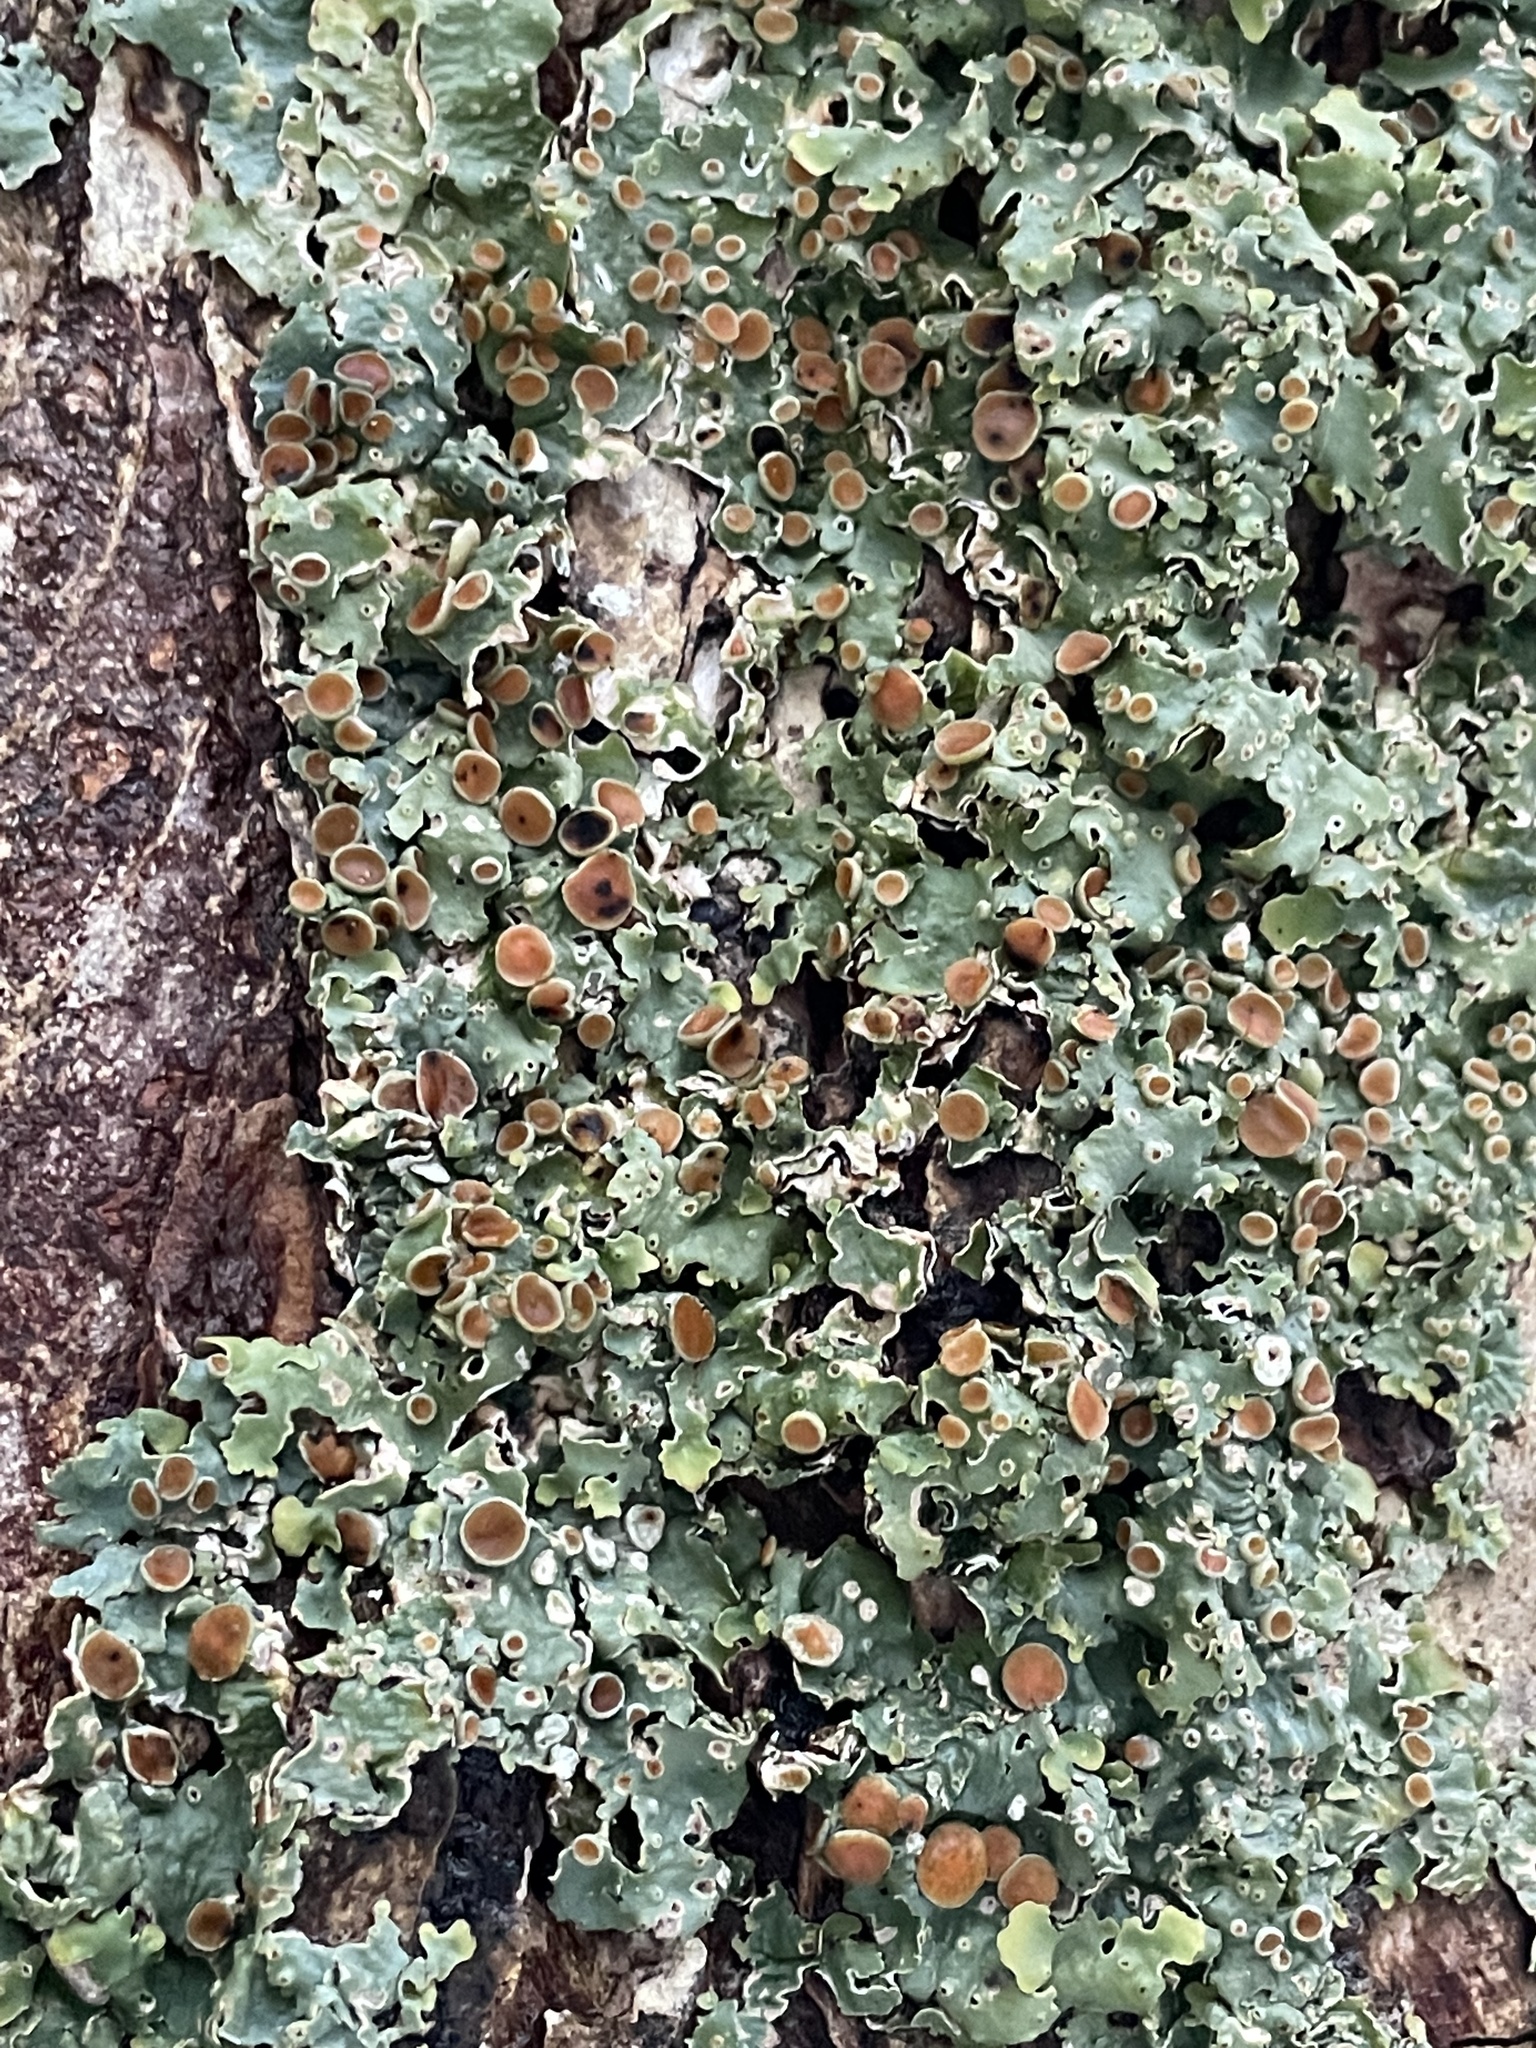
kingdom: Fungi
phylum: Ascomycota
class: Lecanoromycetes
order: Peltigerales
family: Lobariaceae
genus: Ricasolia
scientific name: Ricasolia quercizans
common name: Smooth lungwort
